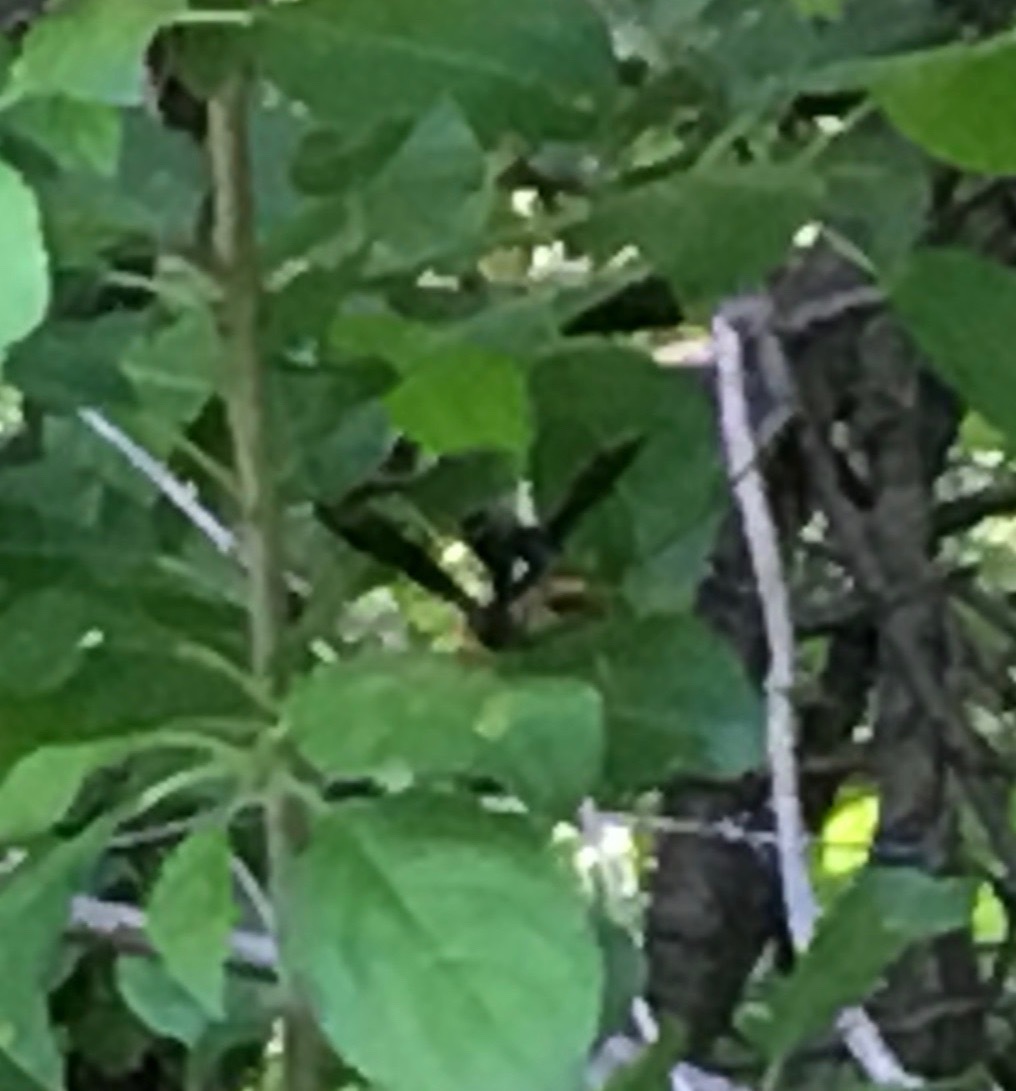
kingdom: Animalia
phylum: Arthropoda
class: Insecta
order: Hymenoptera
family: Ichneumonidae
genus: Megarhyssa
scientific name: Megarhyssa atrata
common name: Black giant ichneumonid wasp
